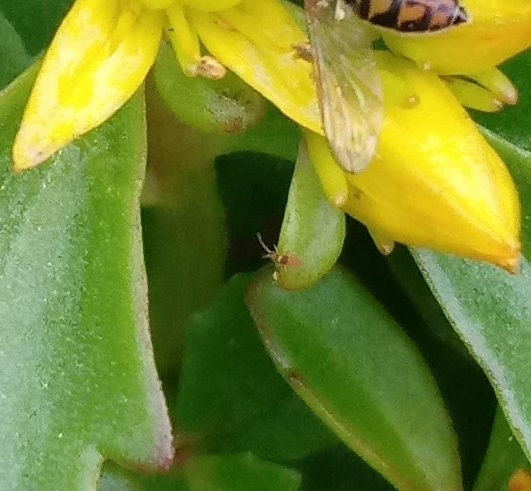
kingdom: Animalia
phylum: Arthropoda
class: Collembola
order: Entomobryomorpha
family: Entomobryidae
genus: Entomobrya
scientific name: Entomobrya atrocincta
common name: Springtail
